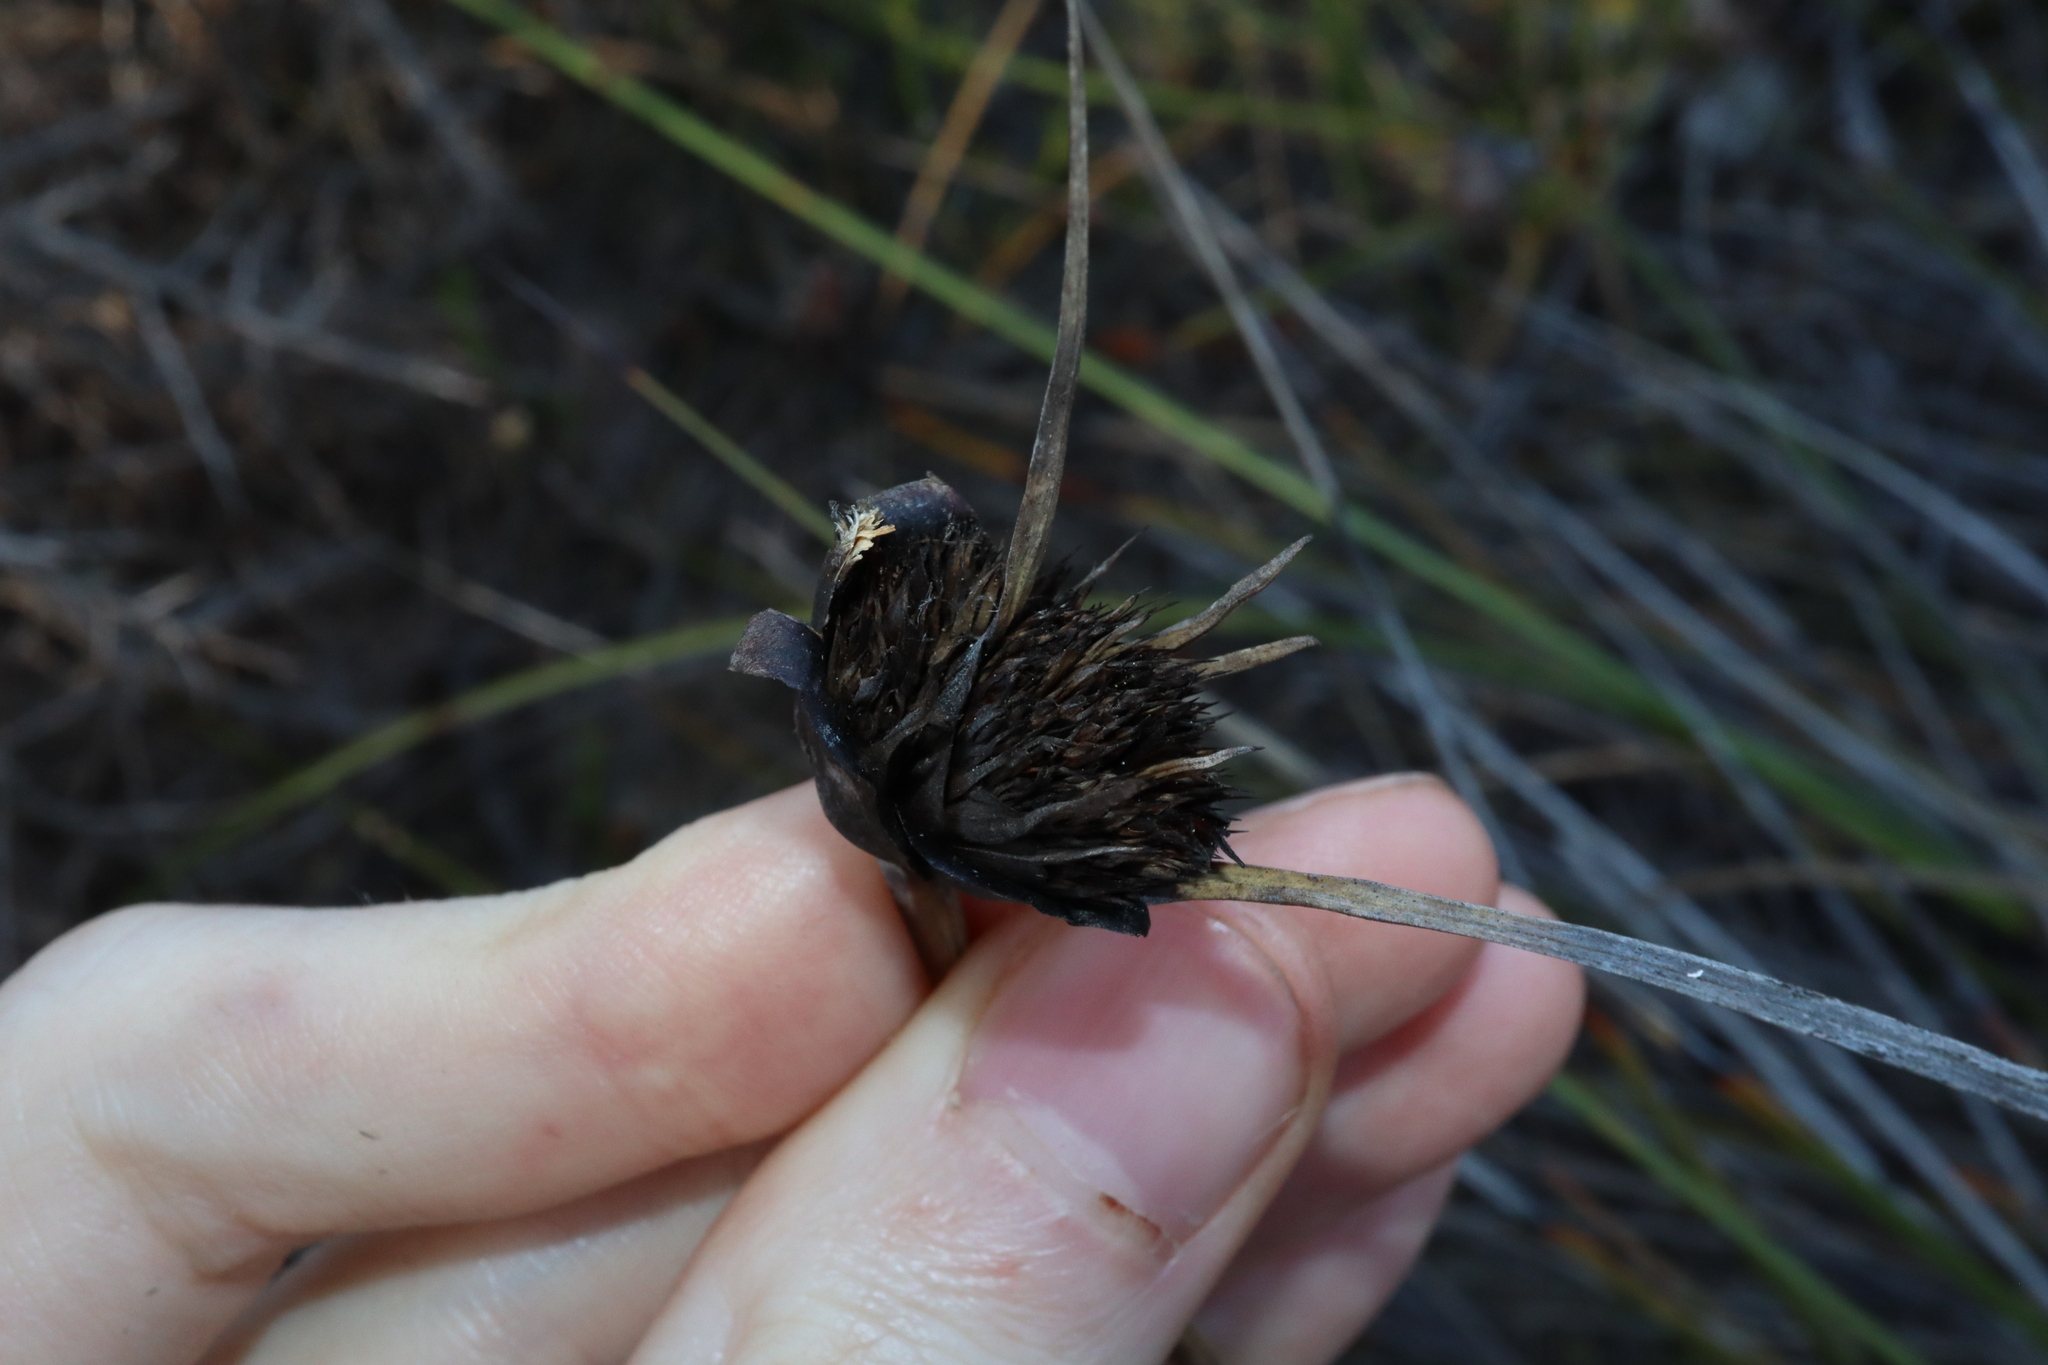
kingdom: Plantae
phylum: Tracheophyta
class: Liliopsida
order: Poales
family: Cyperaceae
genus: Mesomelaena
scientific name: Mesomelaena tetragona
